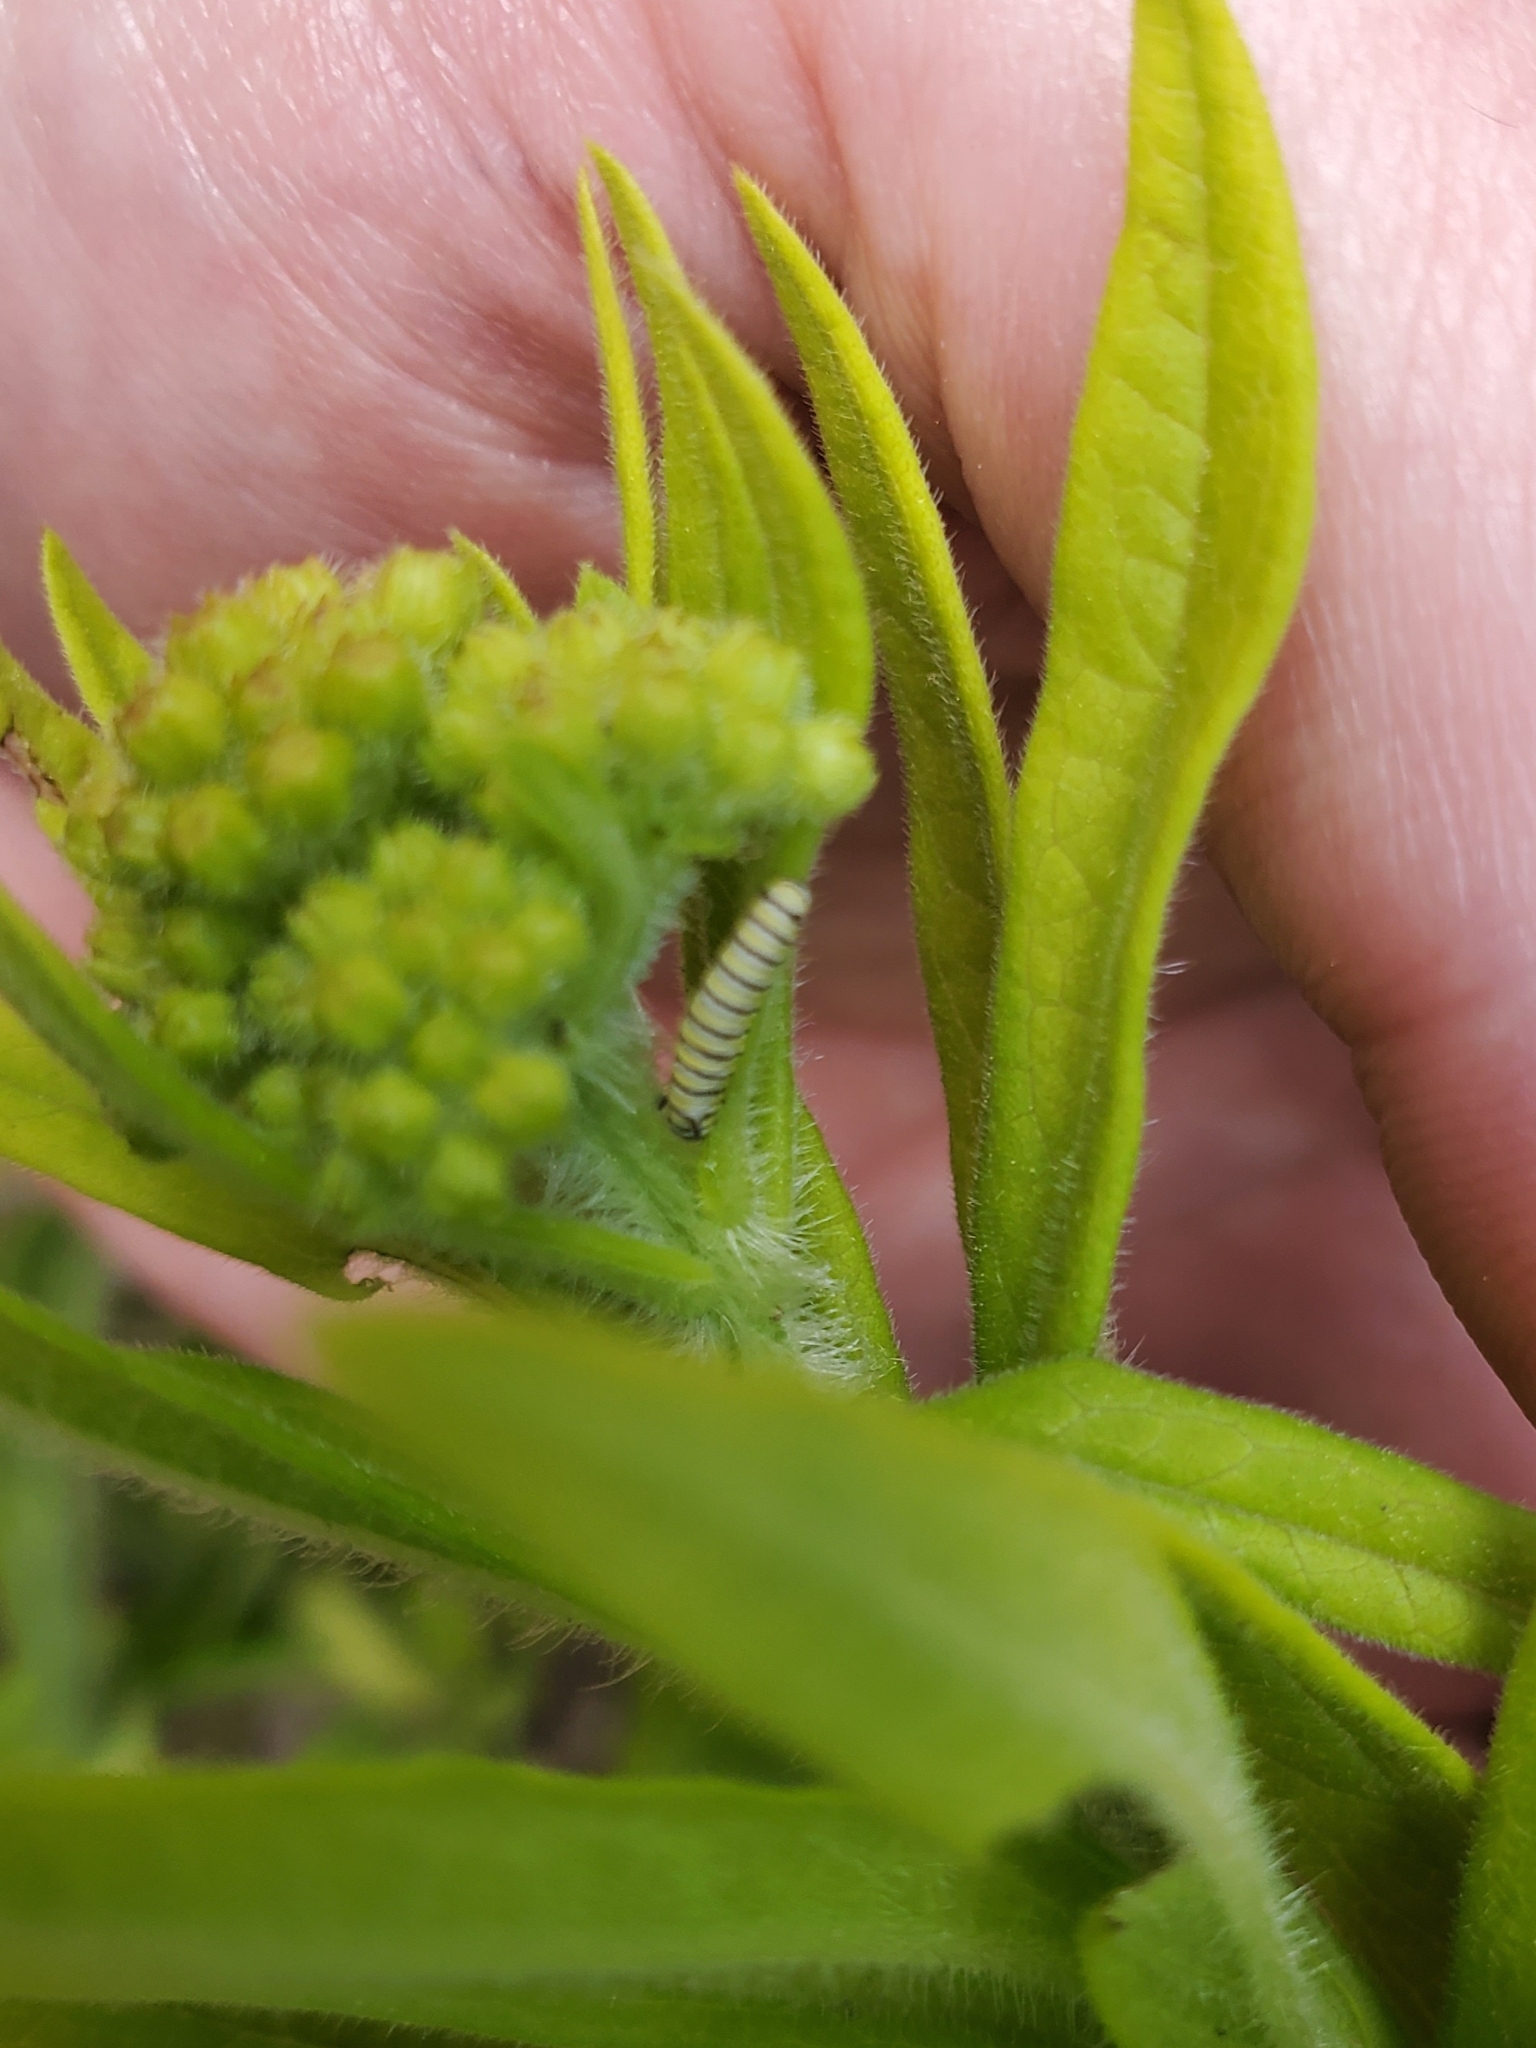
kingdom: Animalia
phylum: Arthropoda
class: Insecta
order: Lepidoptera
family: Nymphalidae
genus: Danaus
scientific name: Danaus plexippus
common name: Monarch
